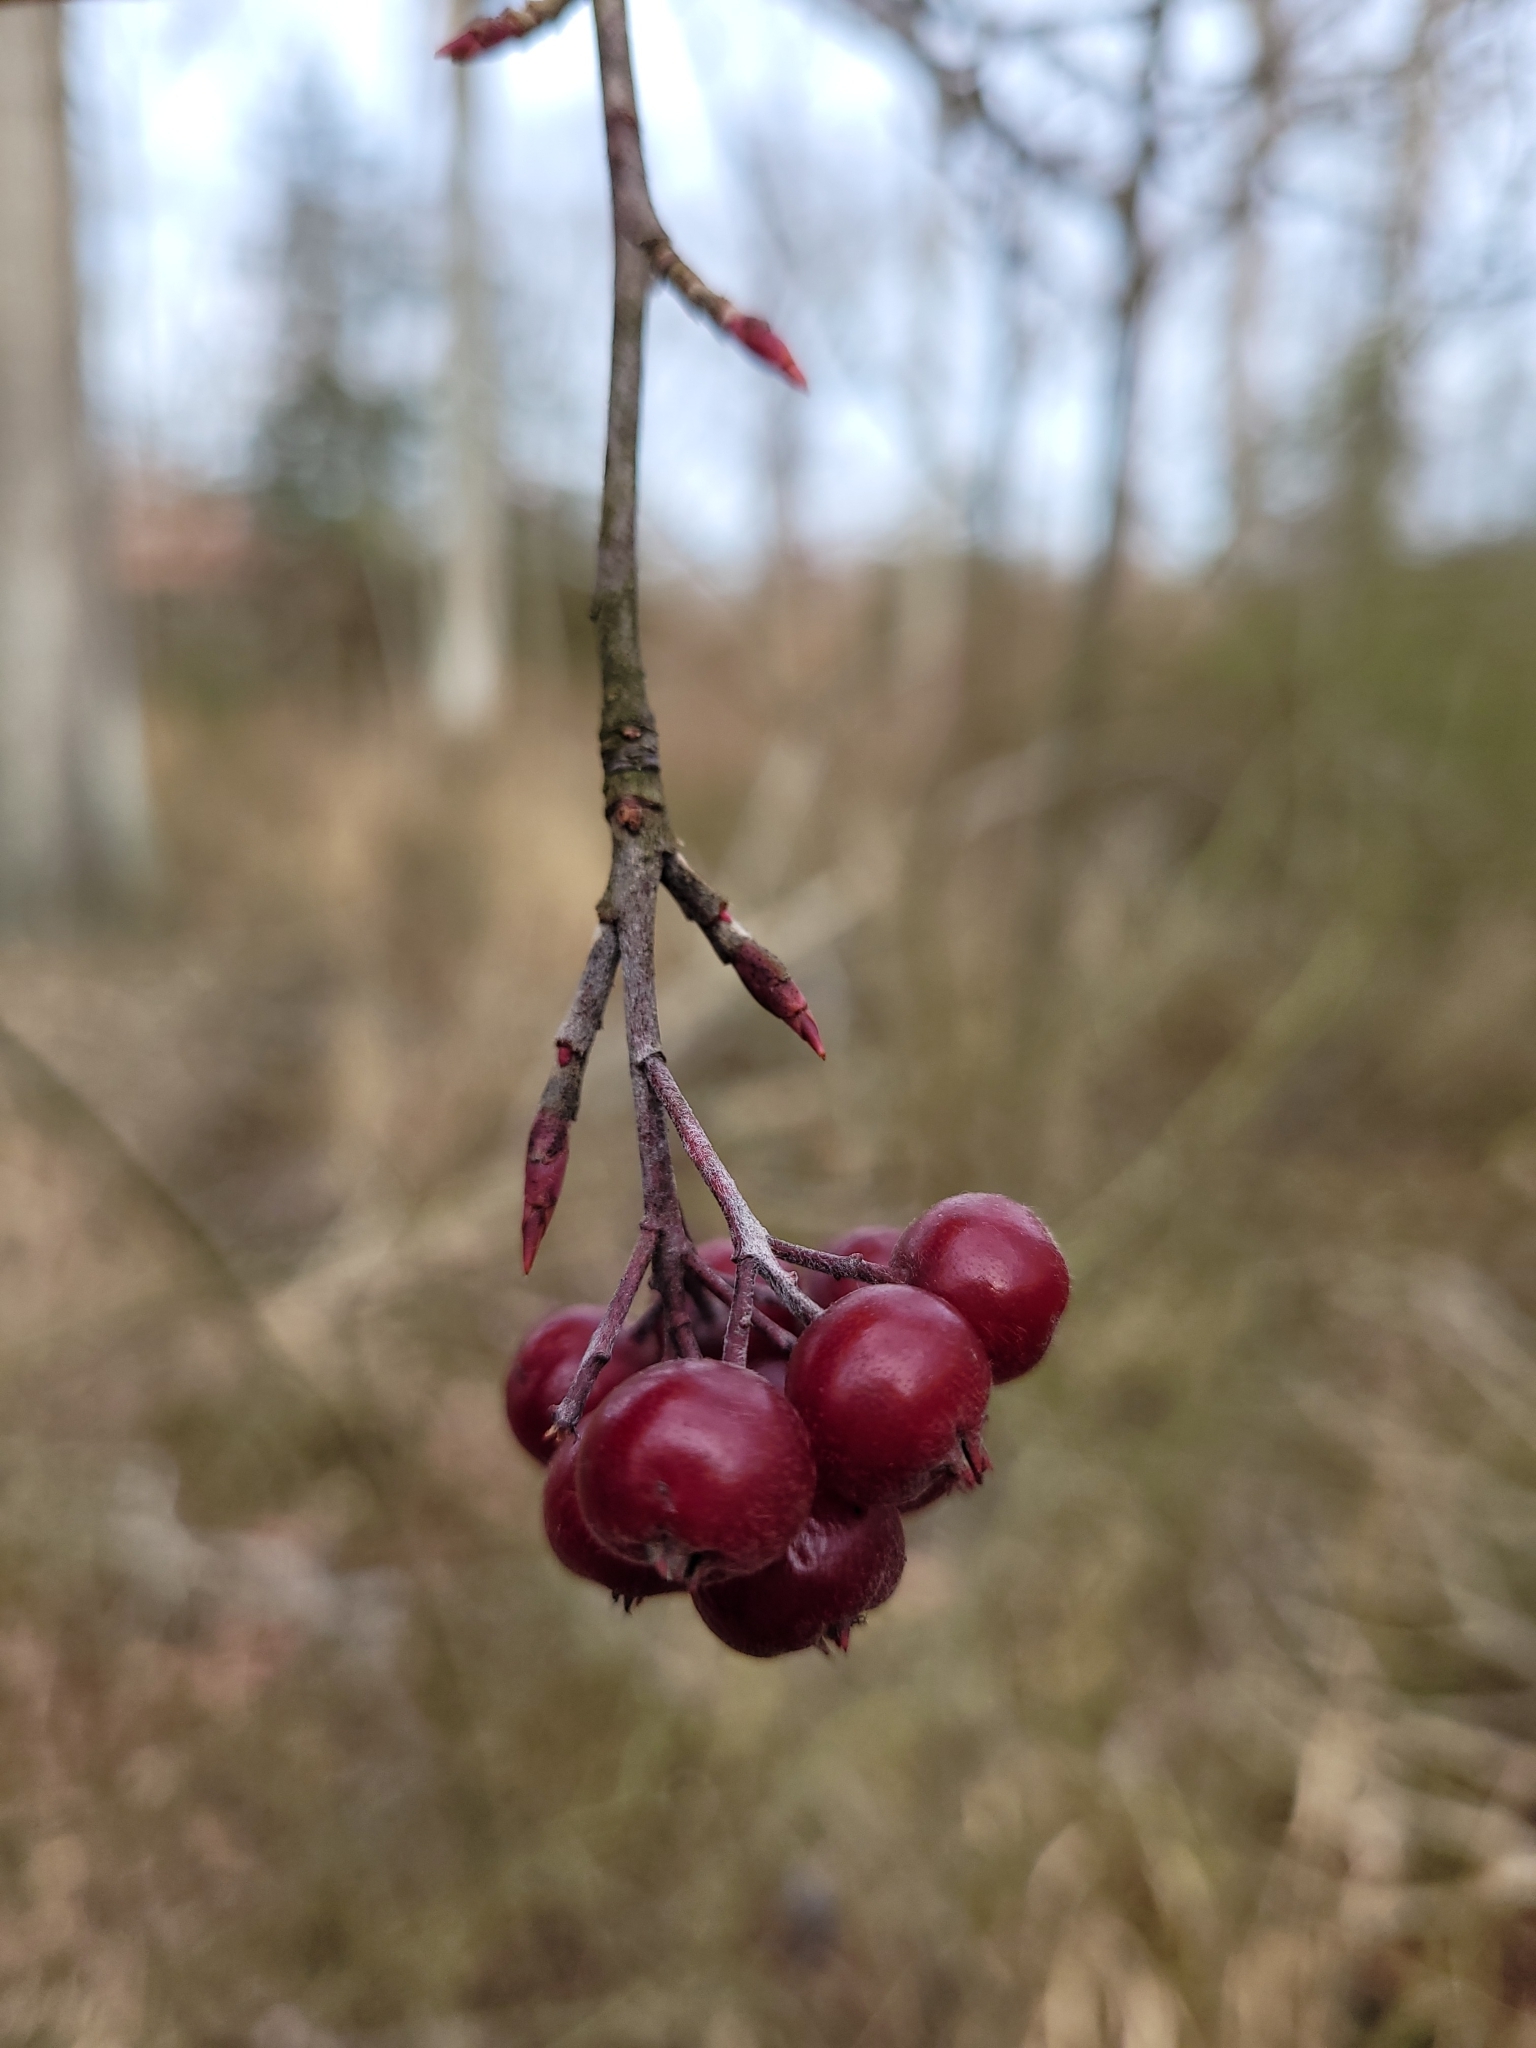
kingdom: Plantae
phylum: Tracheophyta
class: Magnoliopsida
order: Rosales
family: Rosaceae
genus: Aronia
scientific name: Aronia arbutifolia
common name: Red chokeberry
